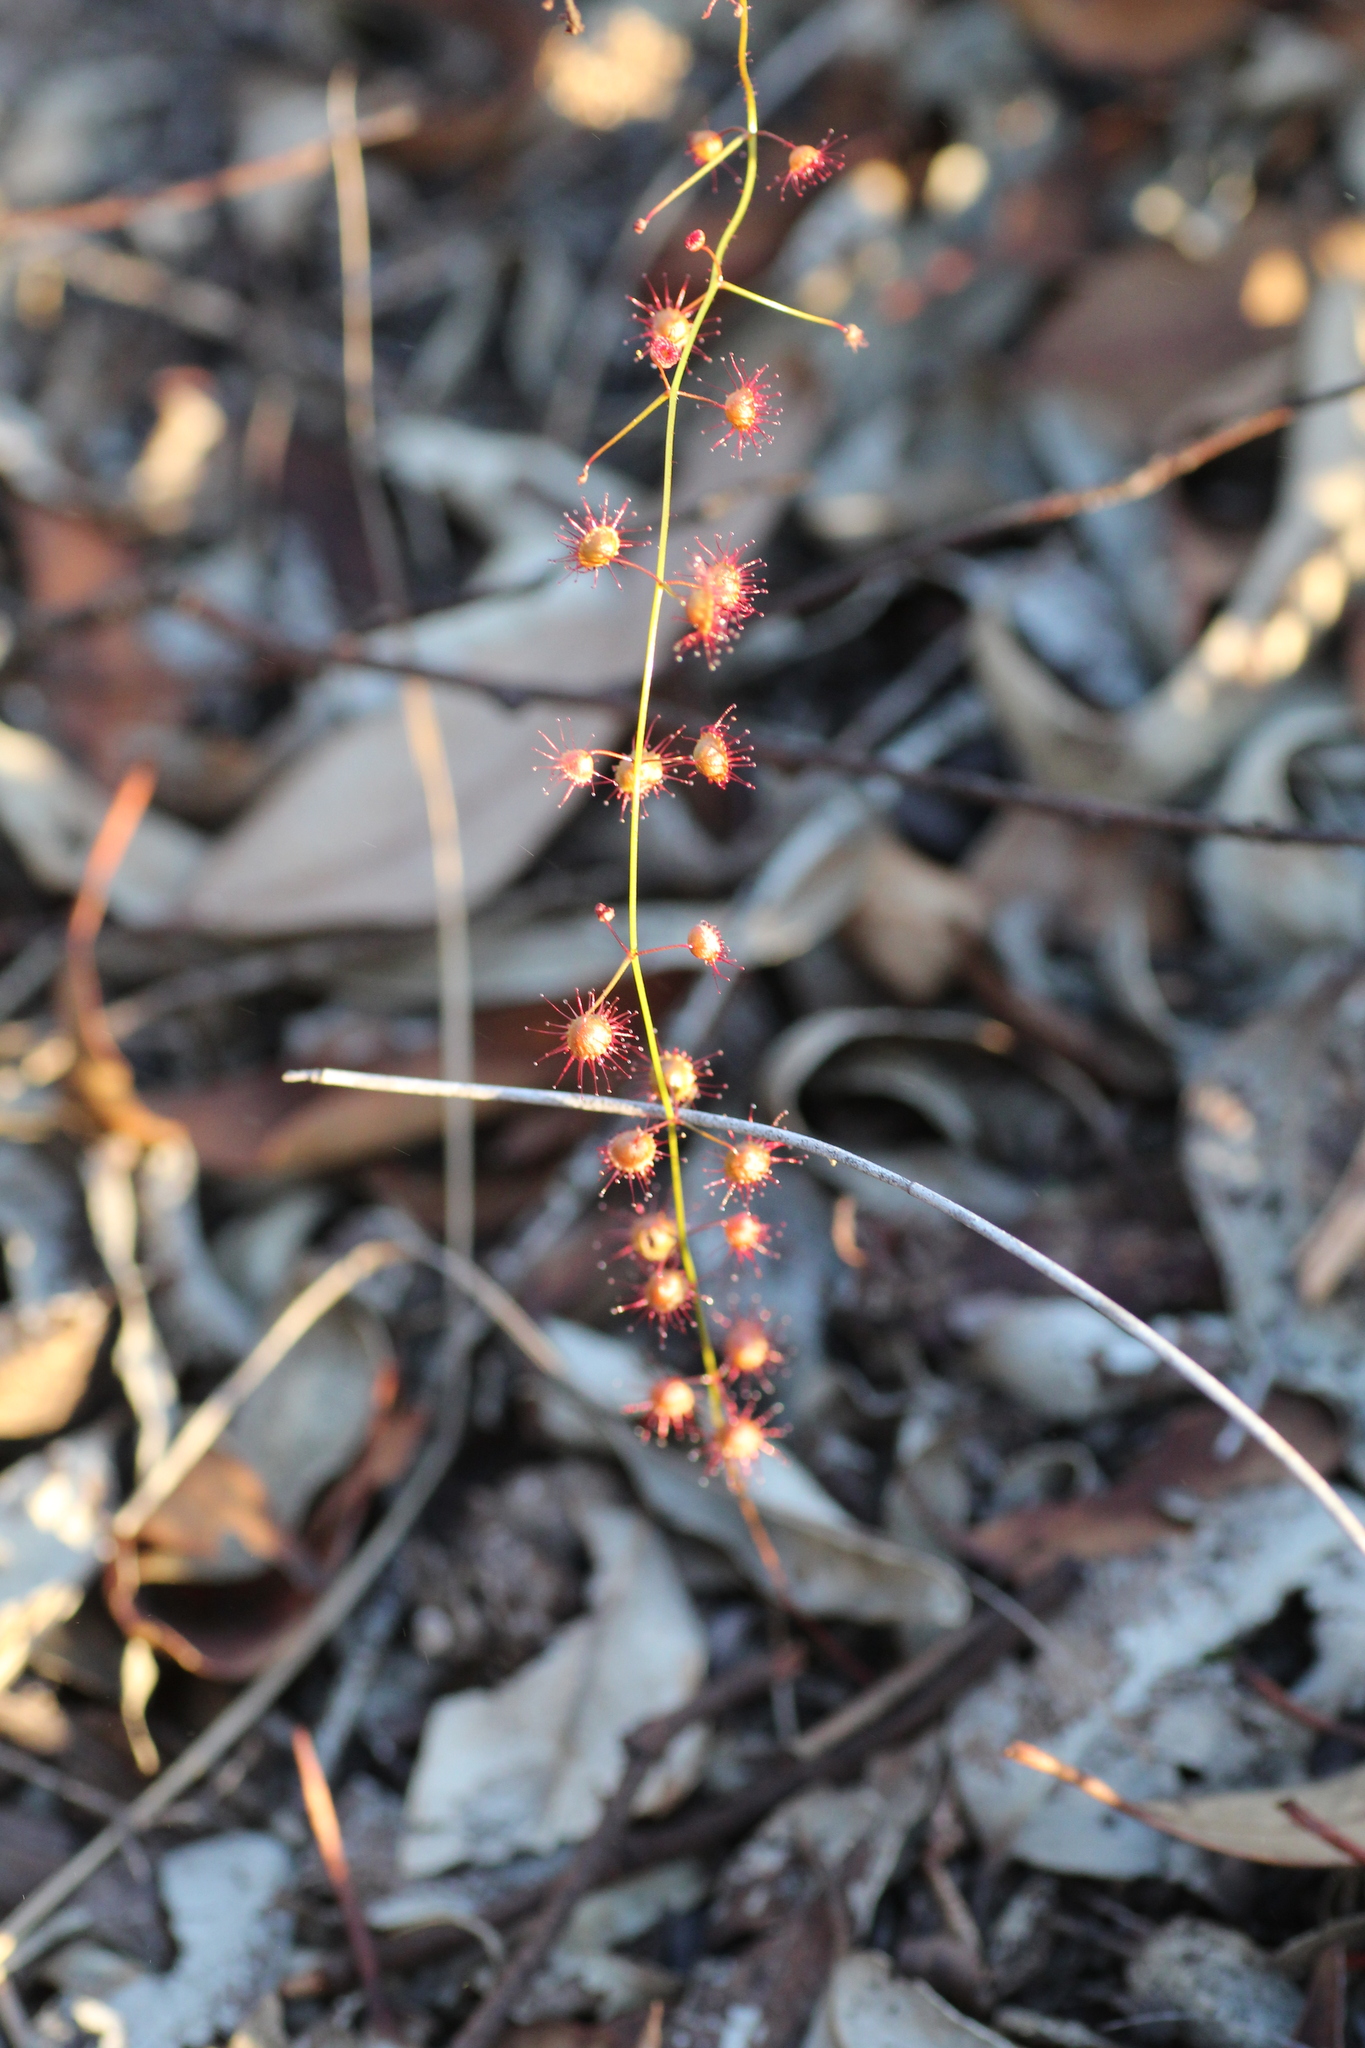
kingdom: Plantae
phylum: Tracheophyta
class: Magnoliopsida
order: Caryophyllales
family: Droseraceae
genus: Drosera
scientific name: Drosera macrantha
